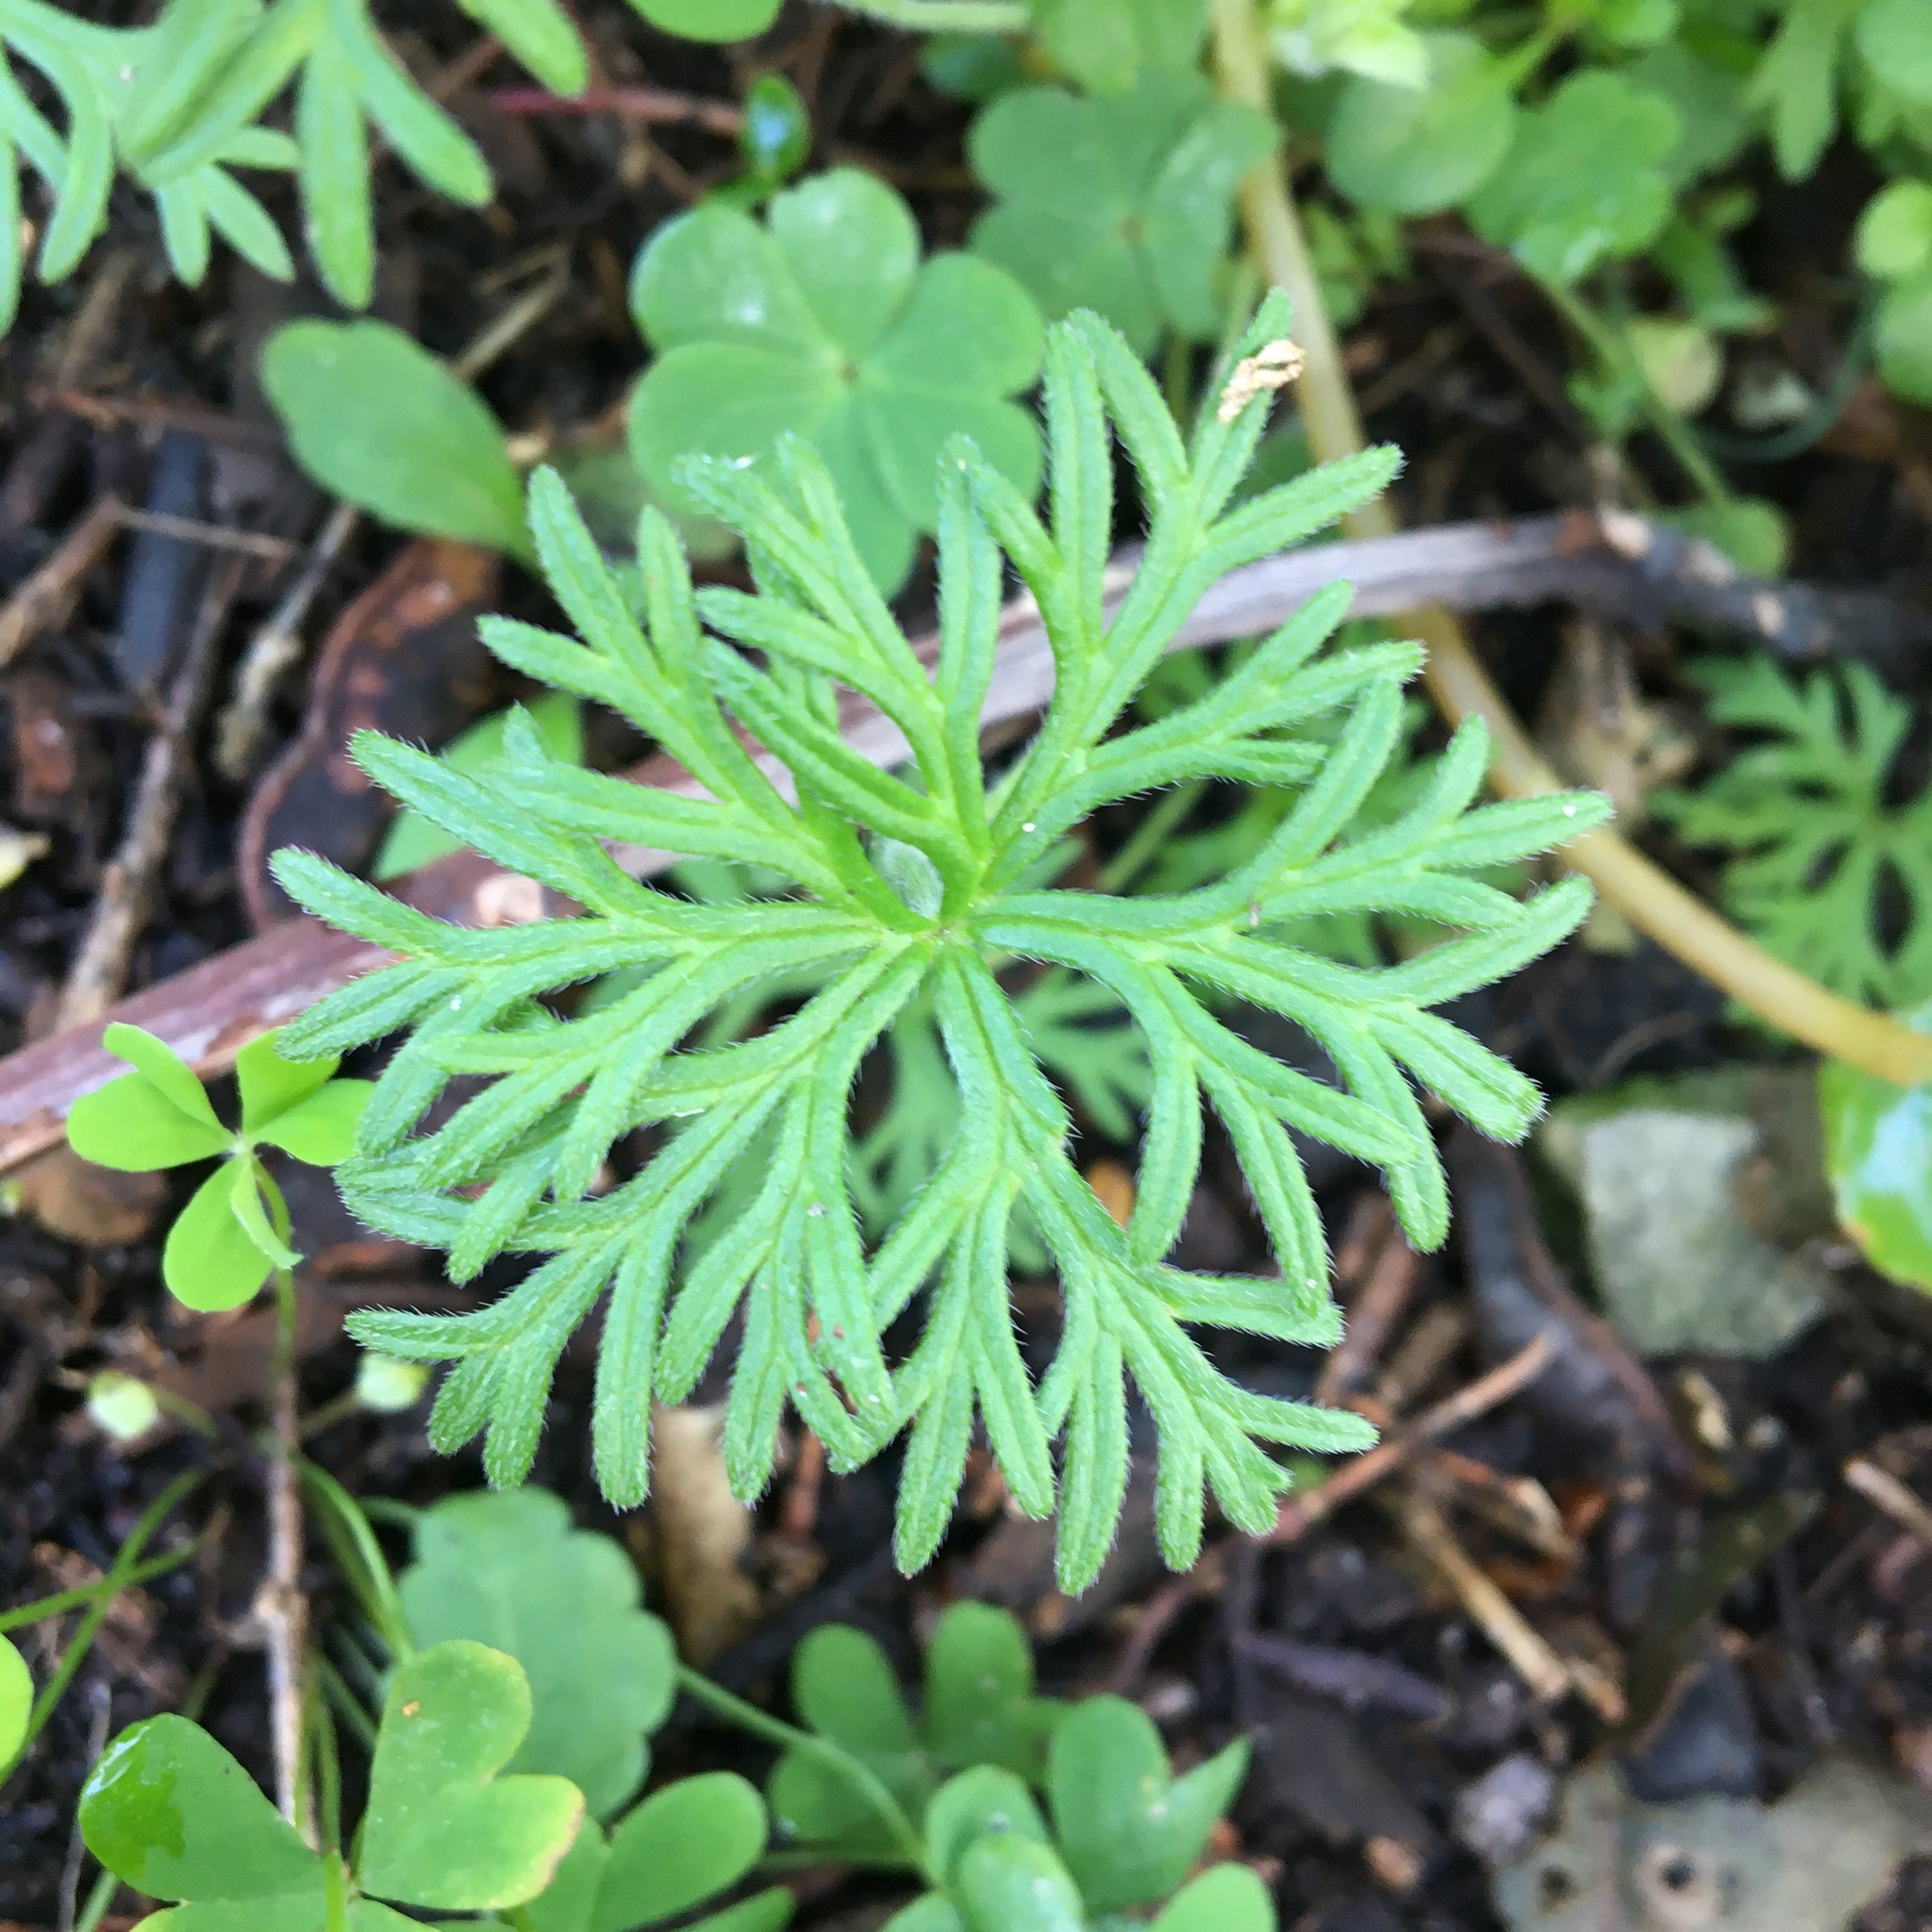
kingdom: Plantae
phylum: Tracheophyta
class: Magnoliopsida
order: Geraniales
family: Geraniaceae
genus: Geranium
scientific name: Geranium incanum
